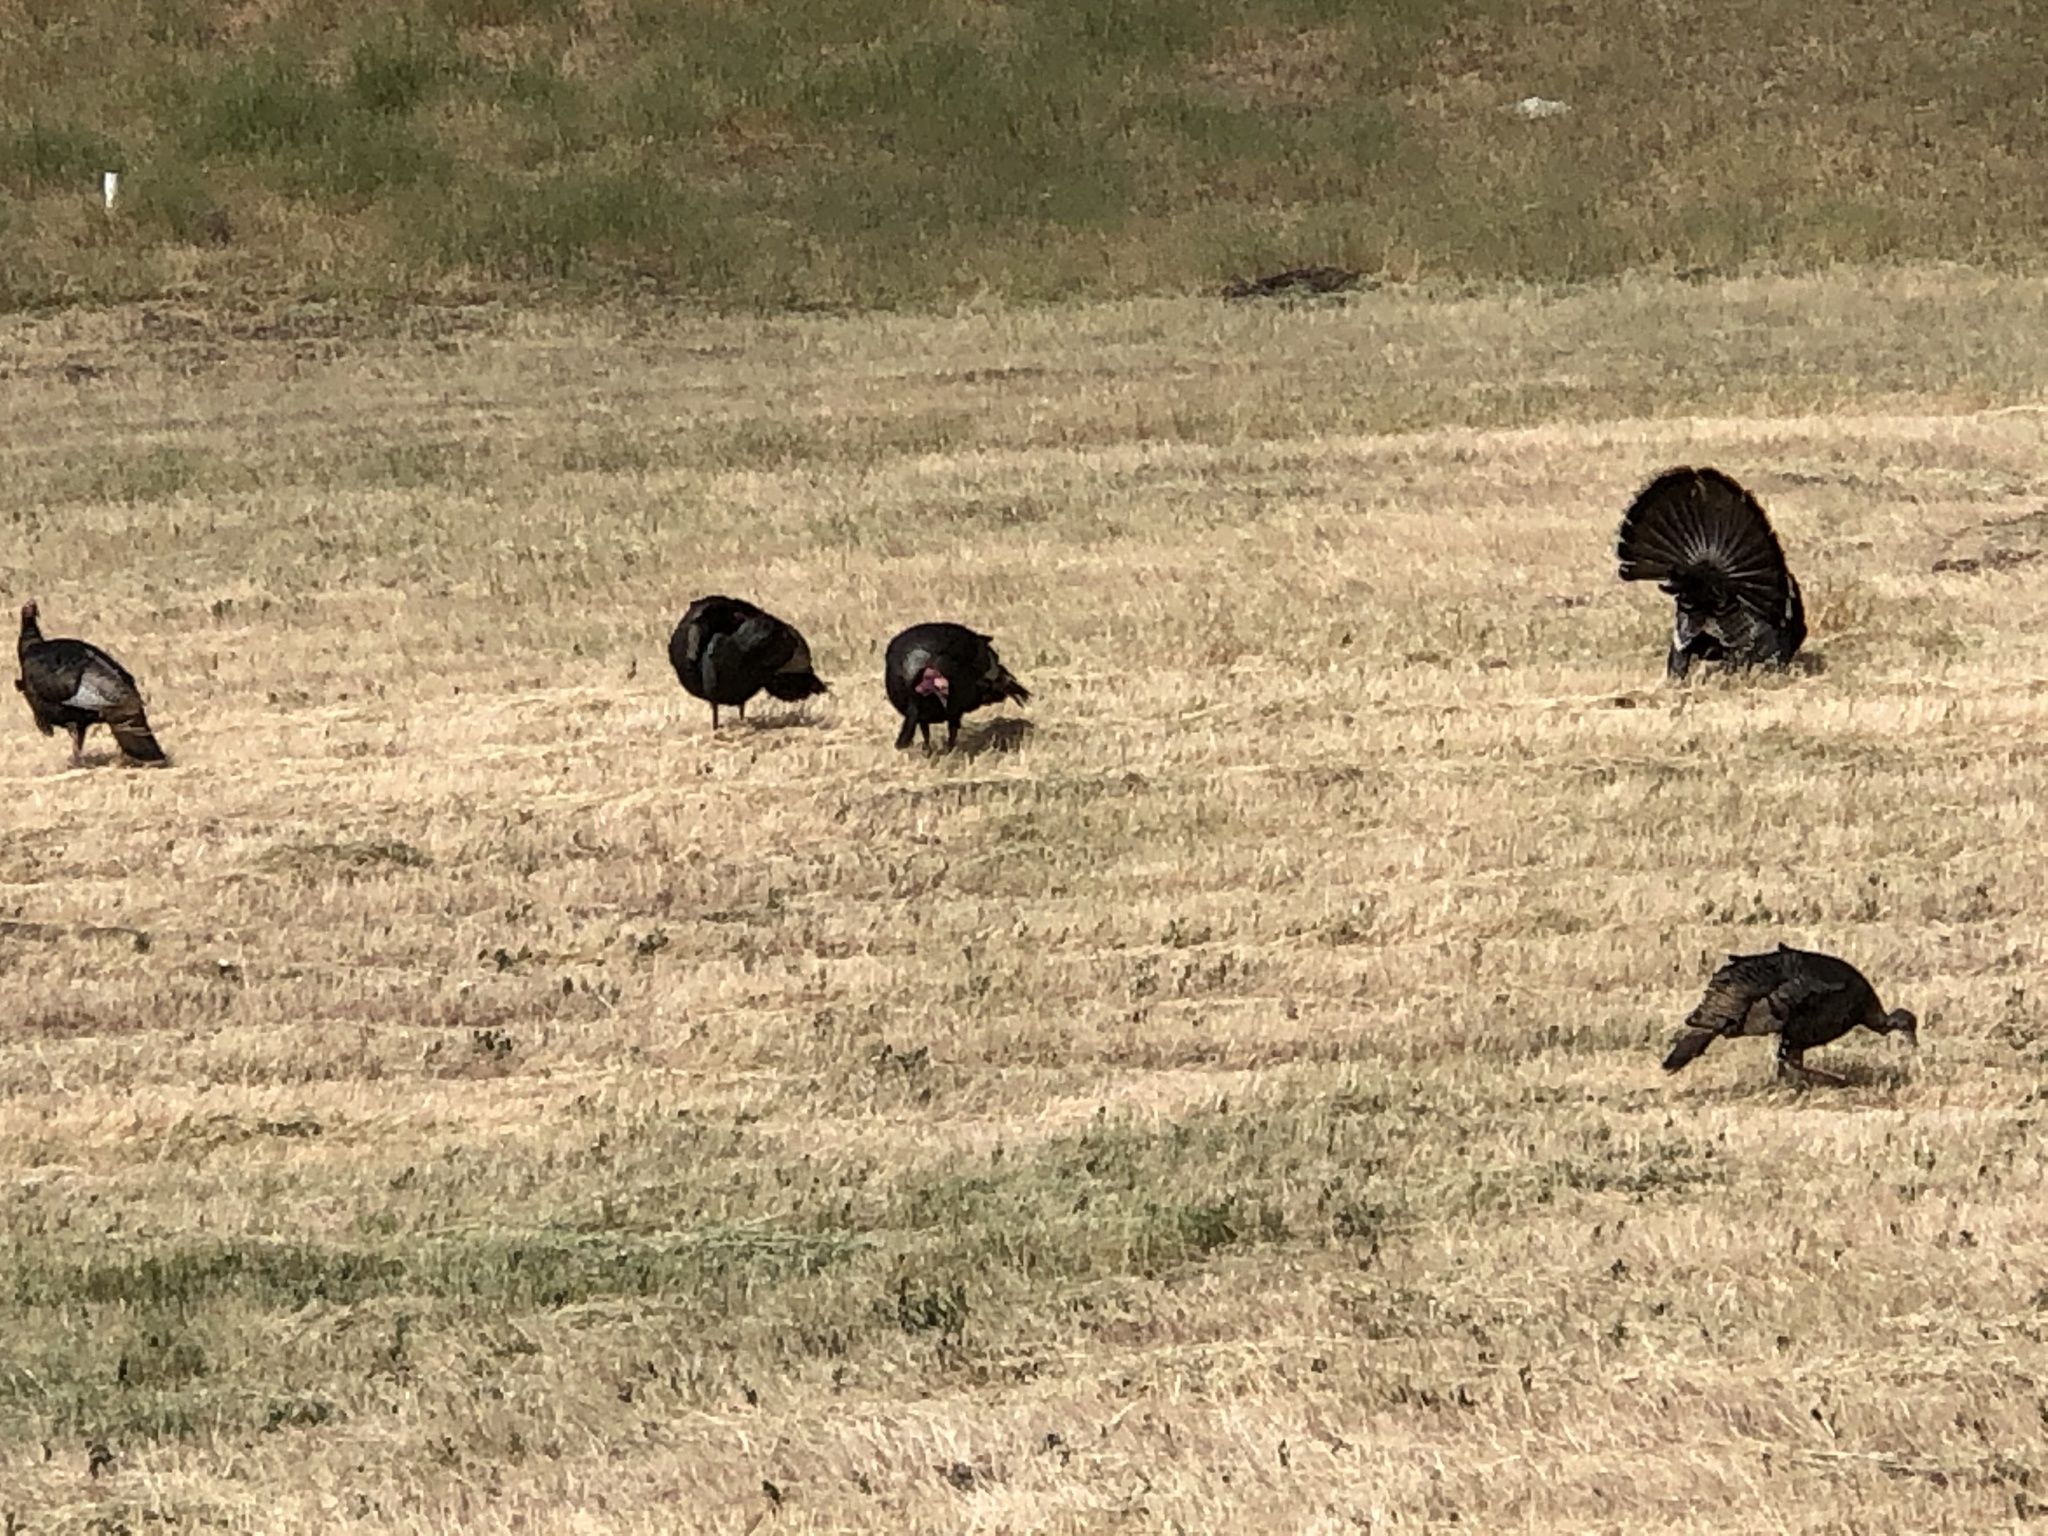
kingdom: Animalia
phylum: Chordata
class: Aves
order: Galliformes
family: Phasianidae
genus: Meleagris
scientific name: Meleagris gallopavo
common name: Wild turkey
